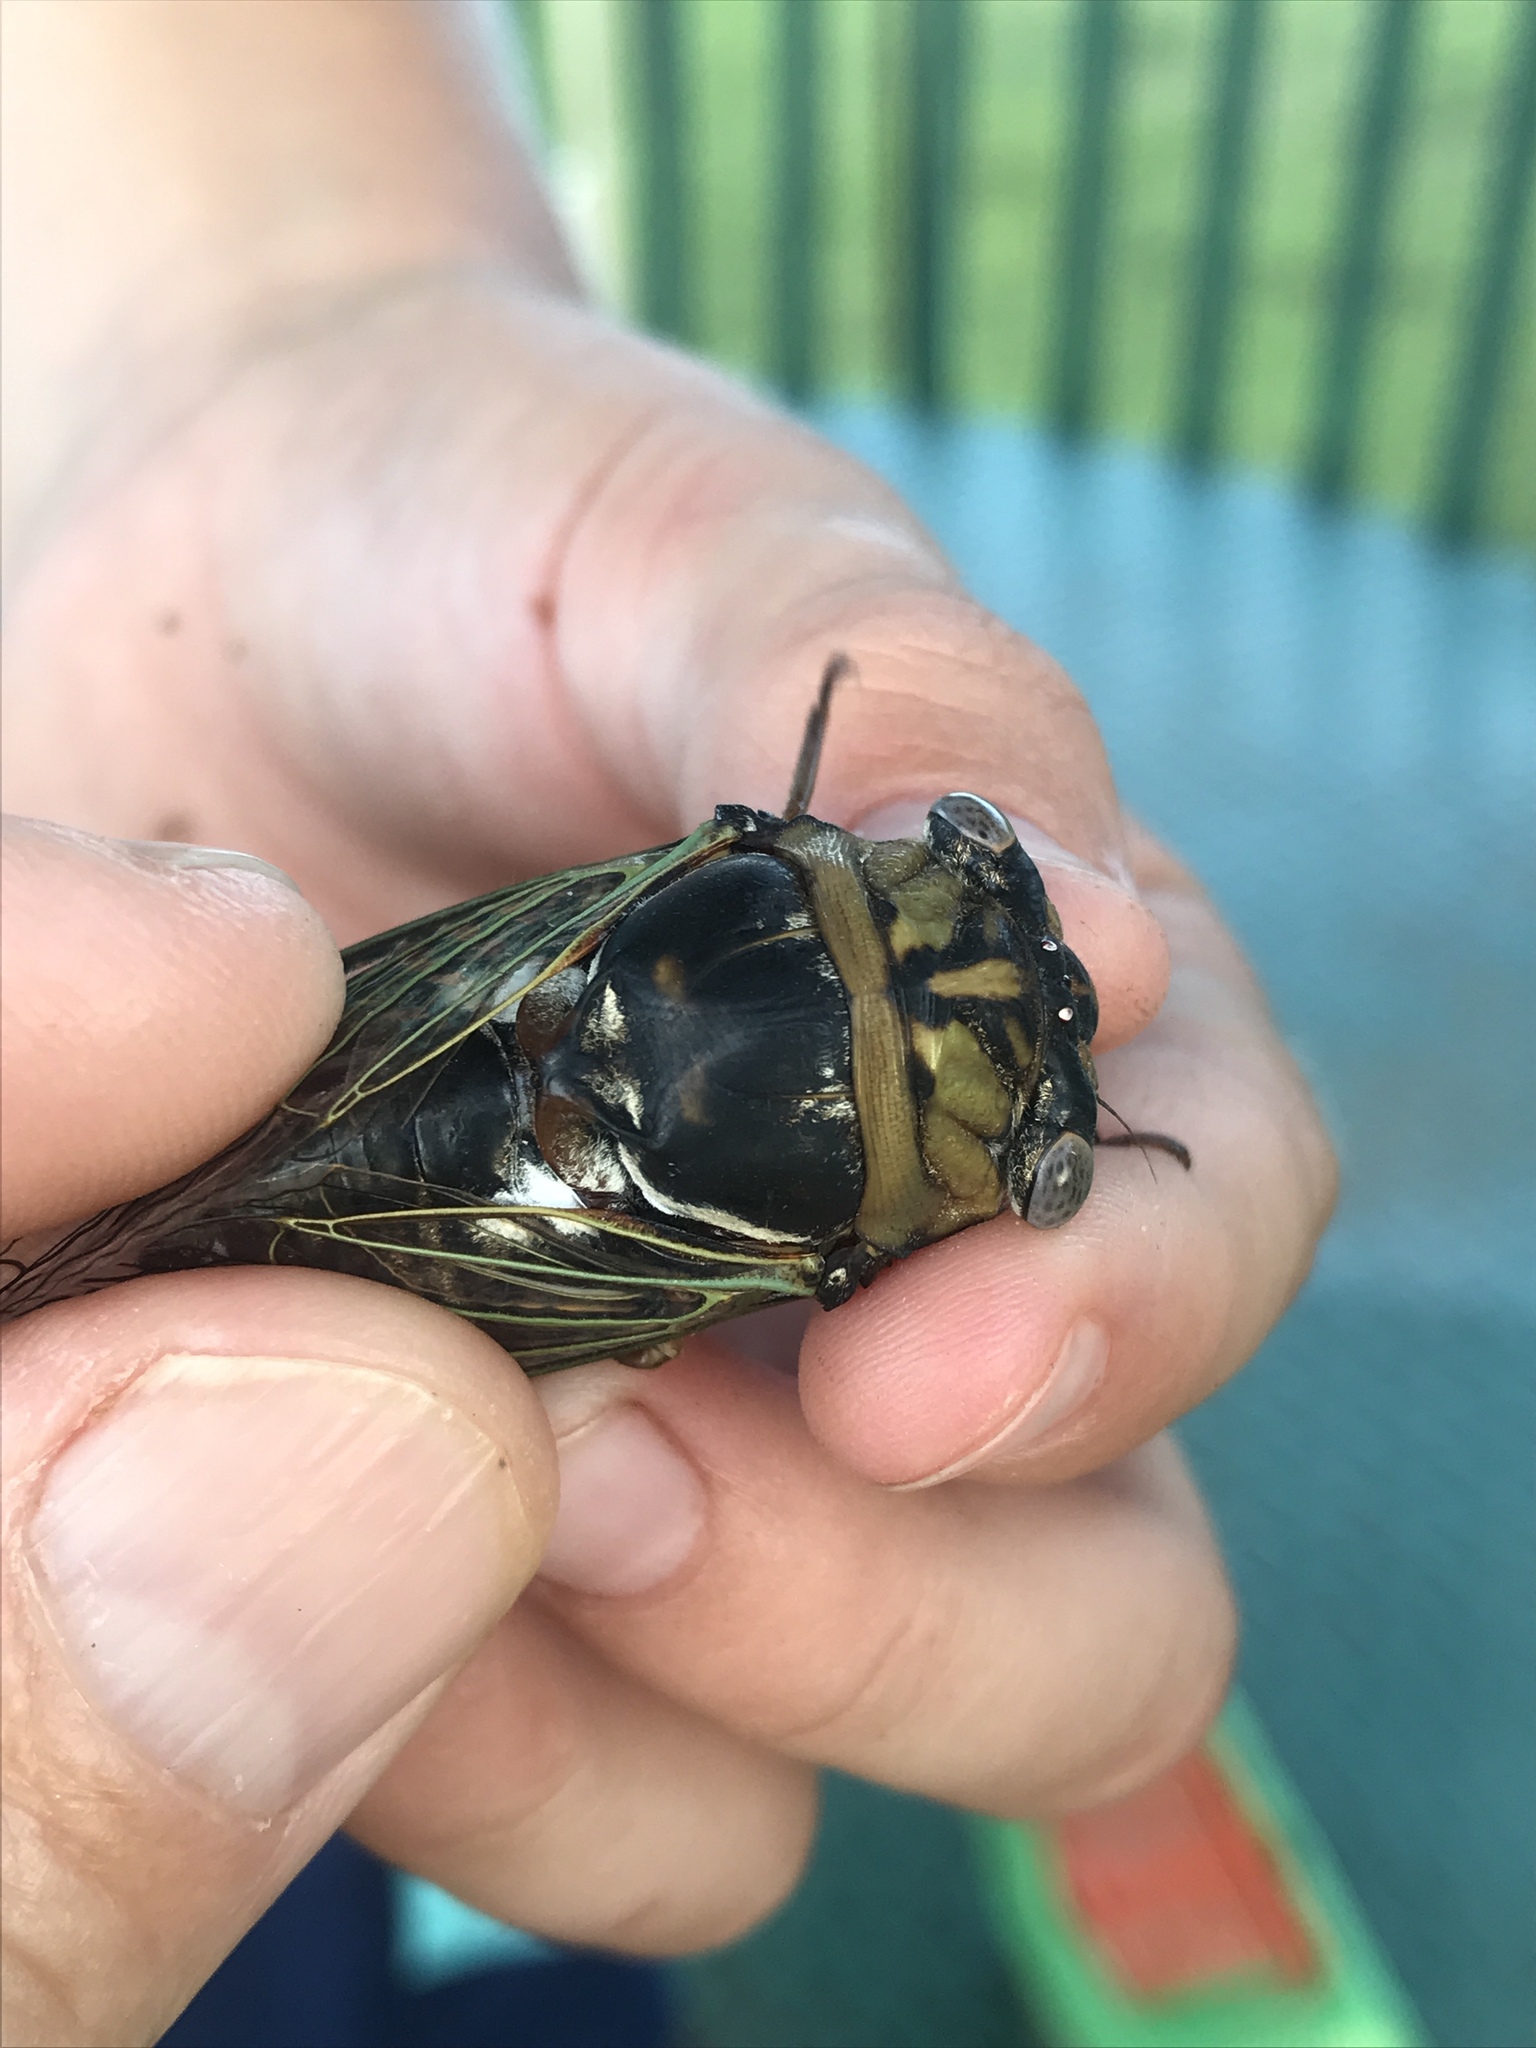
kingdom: Animalia
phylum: Arthropoda
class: Insecta
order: Hemiptera
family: Cicadidae
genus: Megatibicen
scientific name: Megatibicen resh
